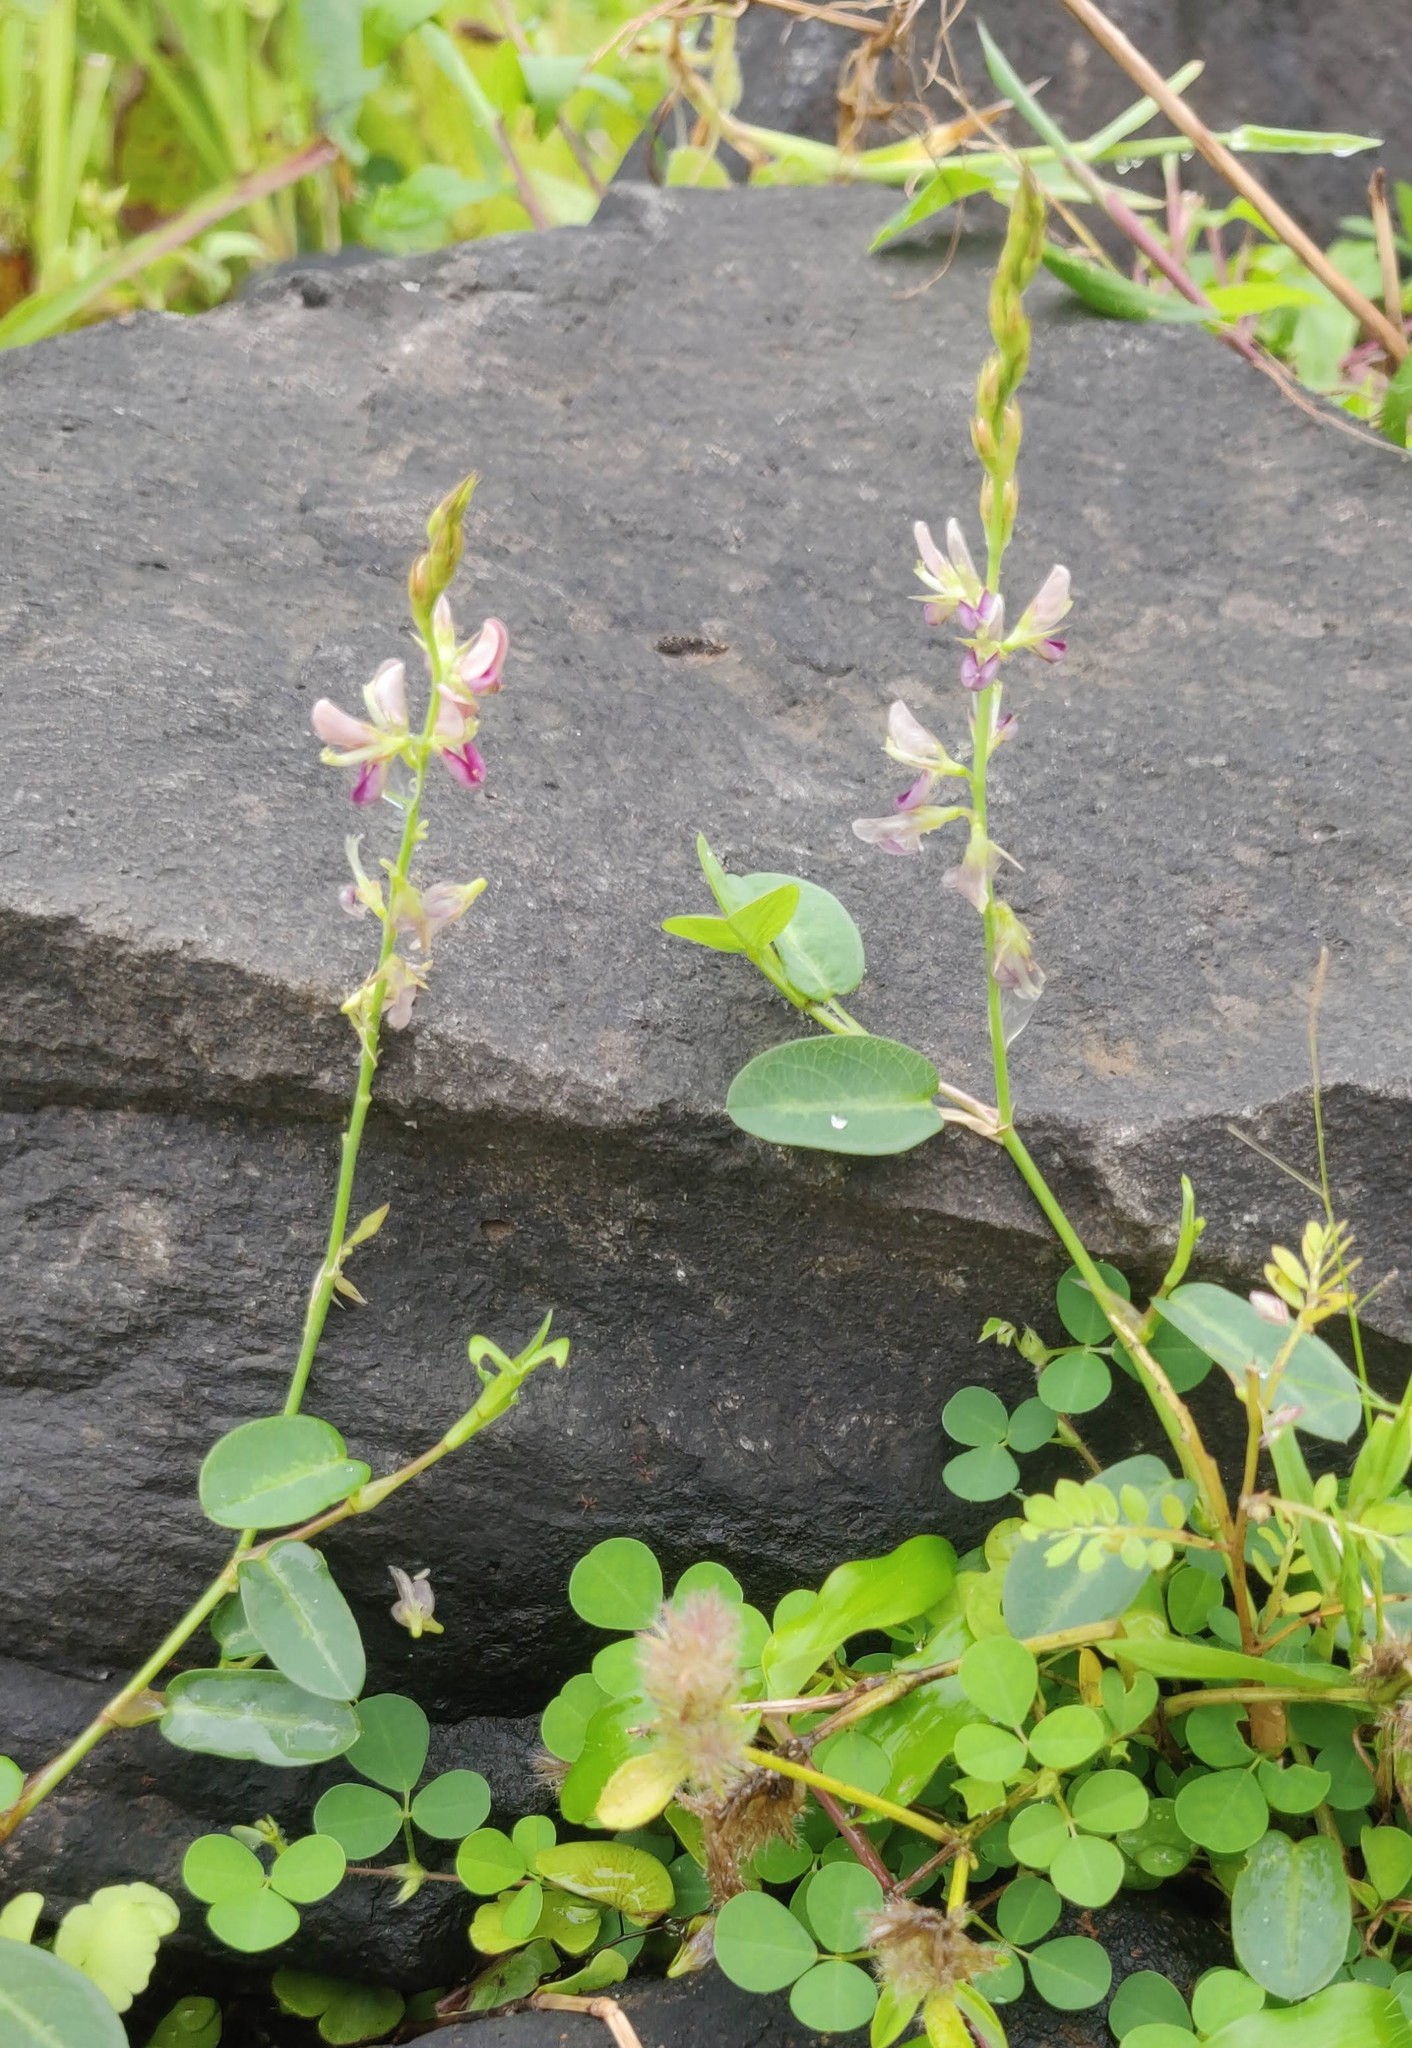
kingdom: Plantae
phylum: Tracheophyta
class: Magnoliopsida
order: Fabales
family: Fabaceae
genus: Alysicarpus
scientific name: Alysicarpus vaginalis
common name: White moneywort
